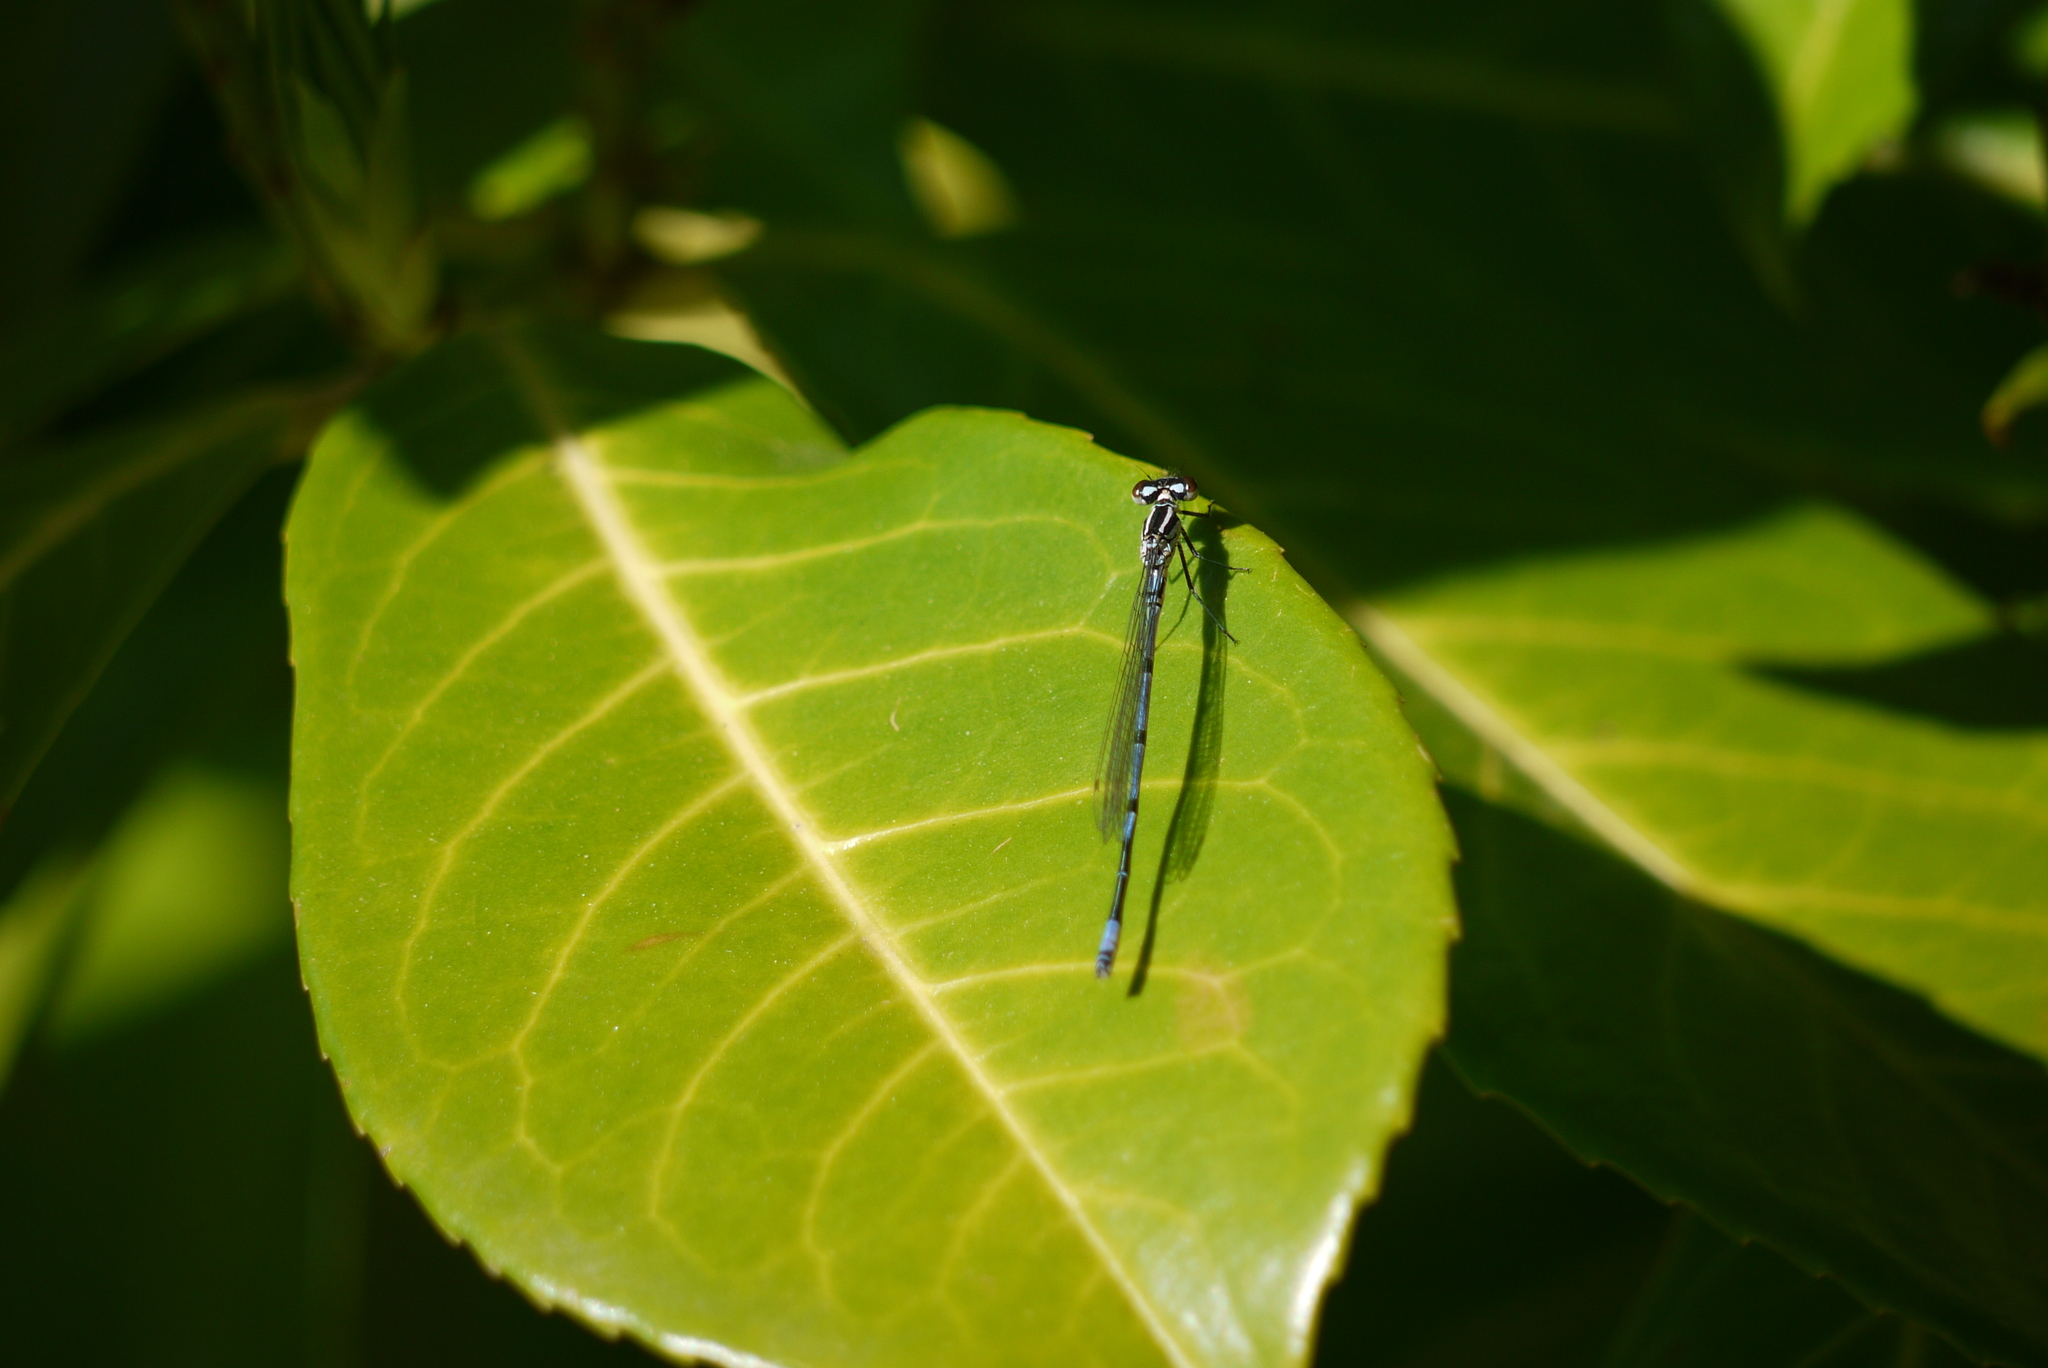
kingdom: Animalia
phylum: Arthropoda
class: Insecta
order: Odonata
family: Coenagrionidae
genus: Coenagrion
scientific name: Coenagrion puella
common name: Azure damselfly
